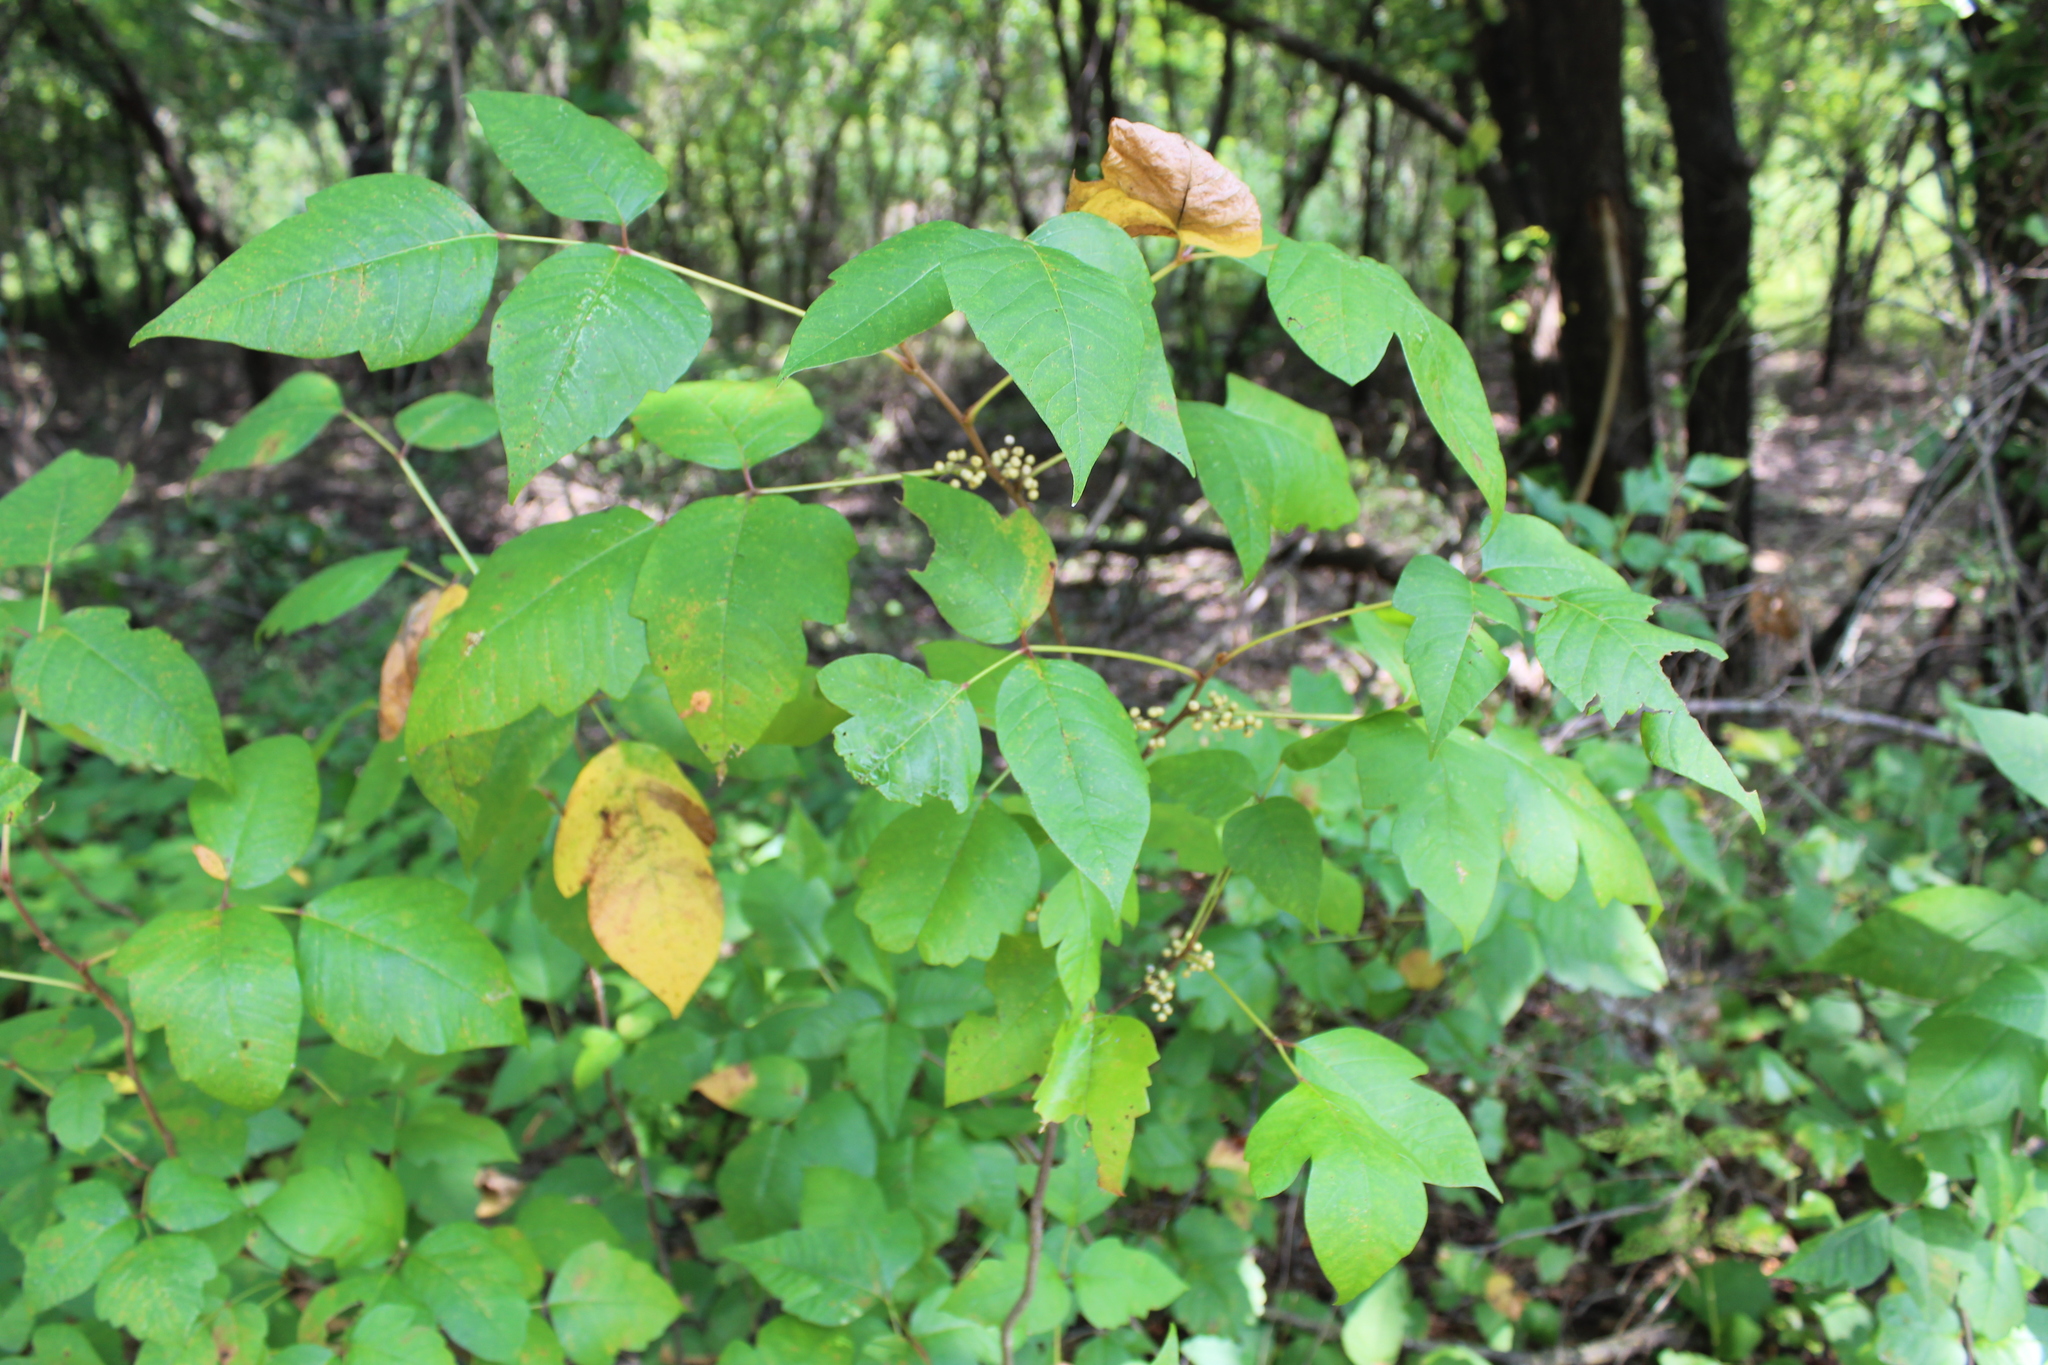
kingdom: Plantae
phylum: Tracheophyta
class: Magnoliopsida
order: Sapindales
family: Anacardiaceae
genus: Toxicodendron
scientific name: Toxicodendron radicans
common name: Poison ivy
